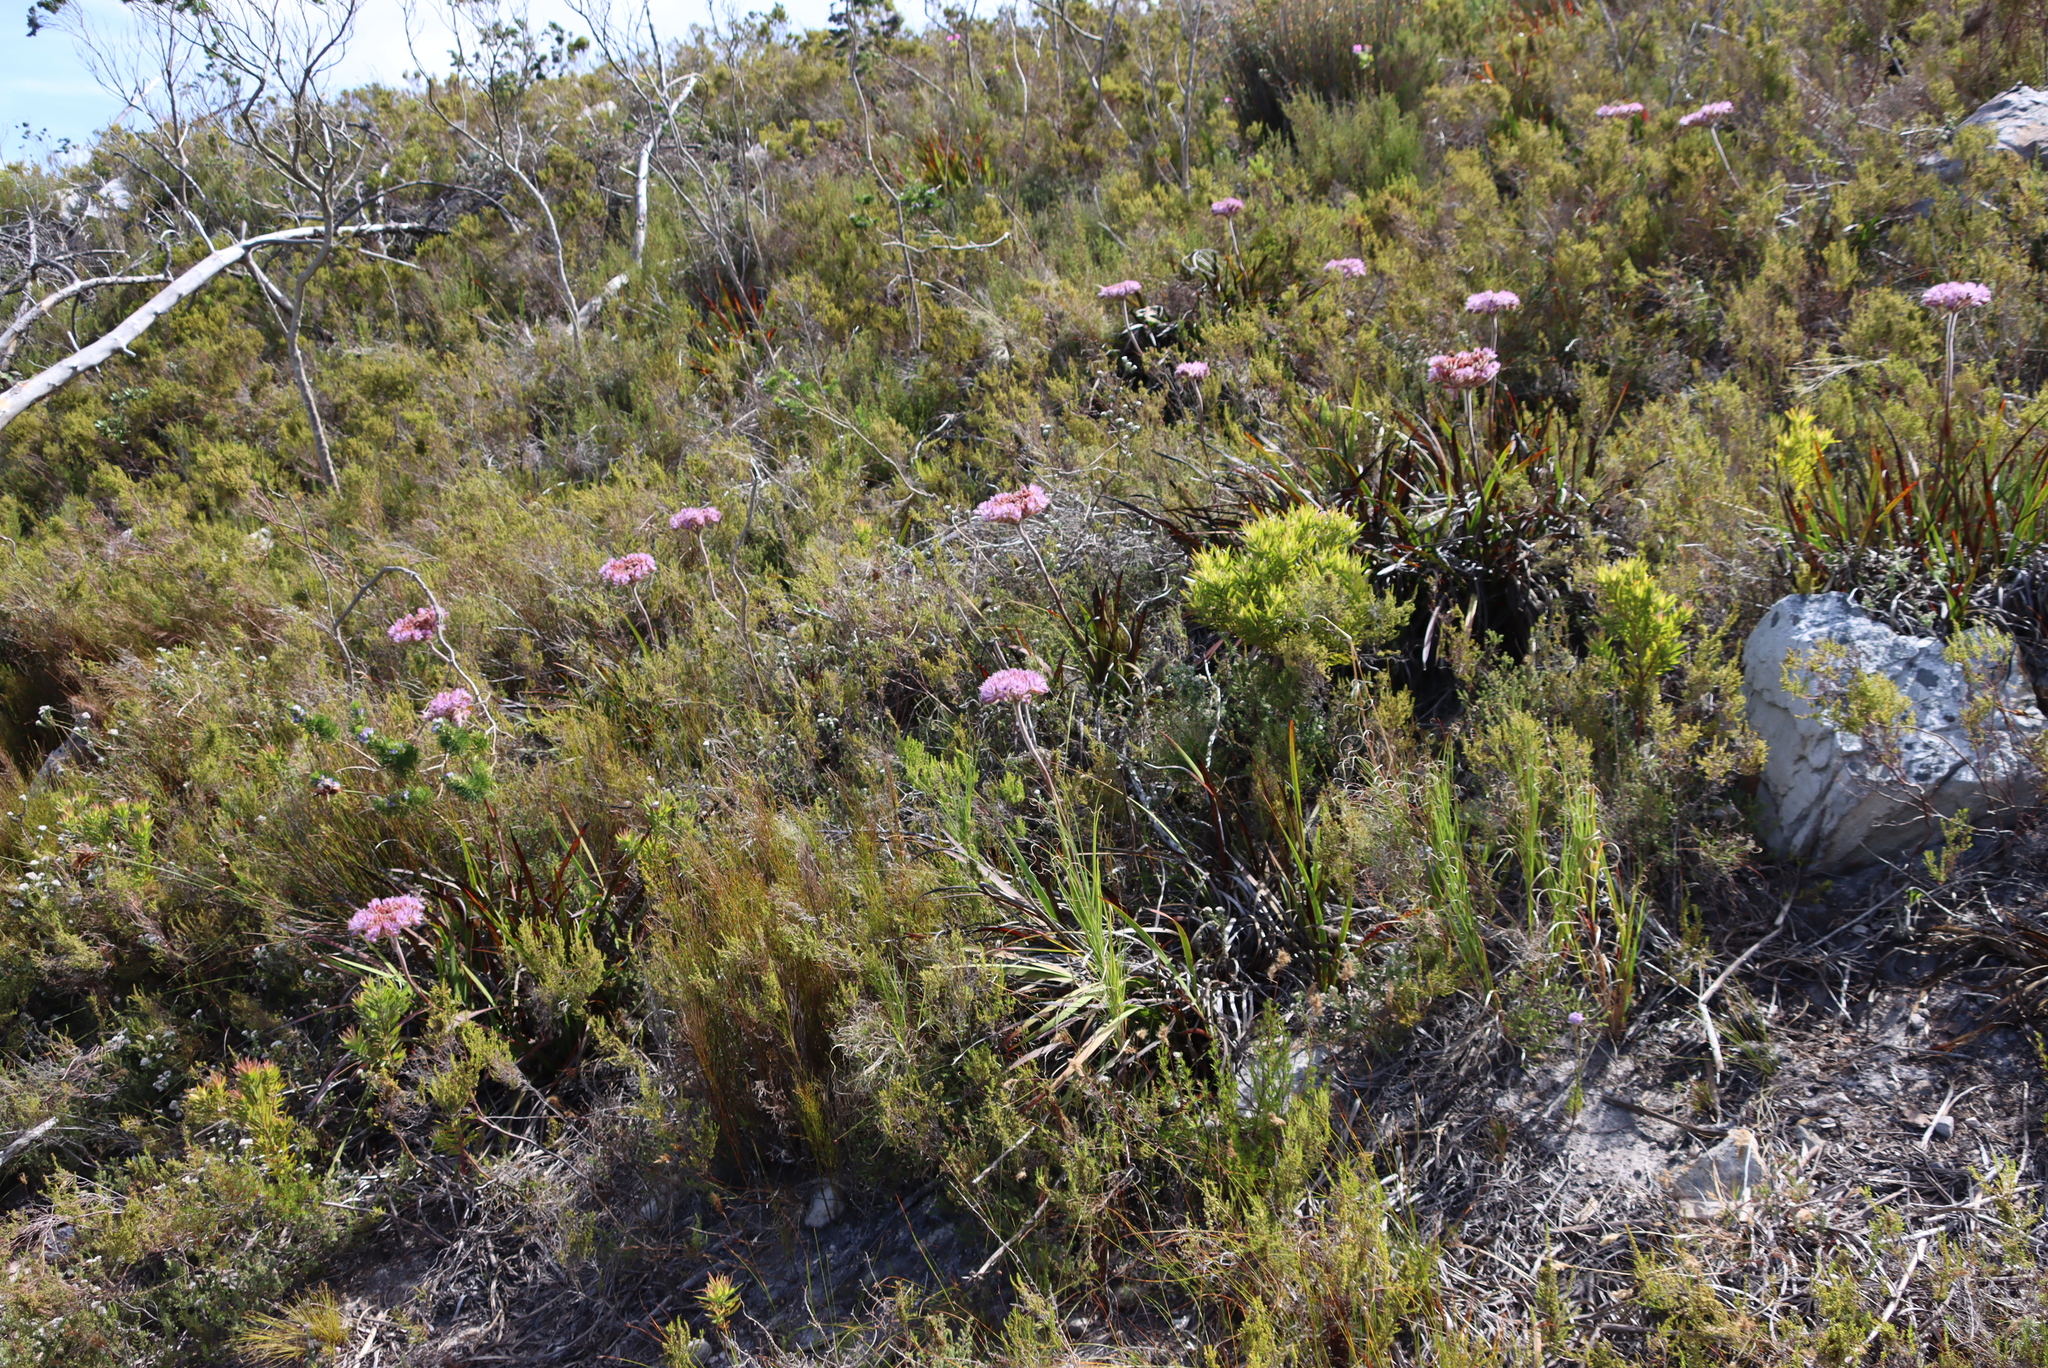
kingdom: Plantae
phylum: Tracheophyta
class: Liliopsida
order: Commelinales
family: Haemodoraceae
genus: Dilatris
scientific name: Dilatris corymbosa
